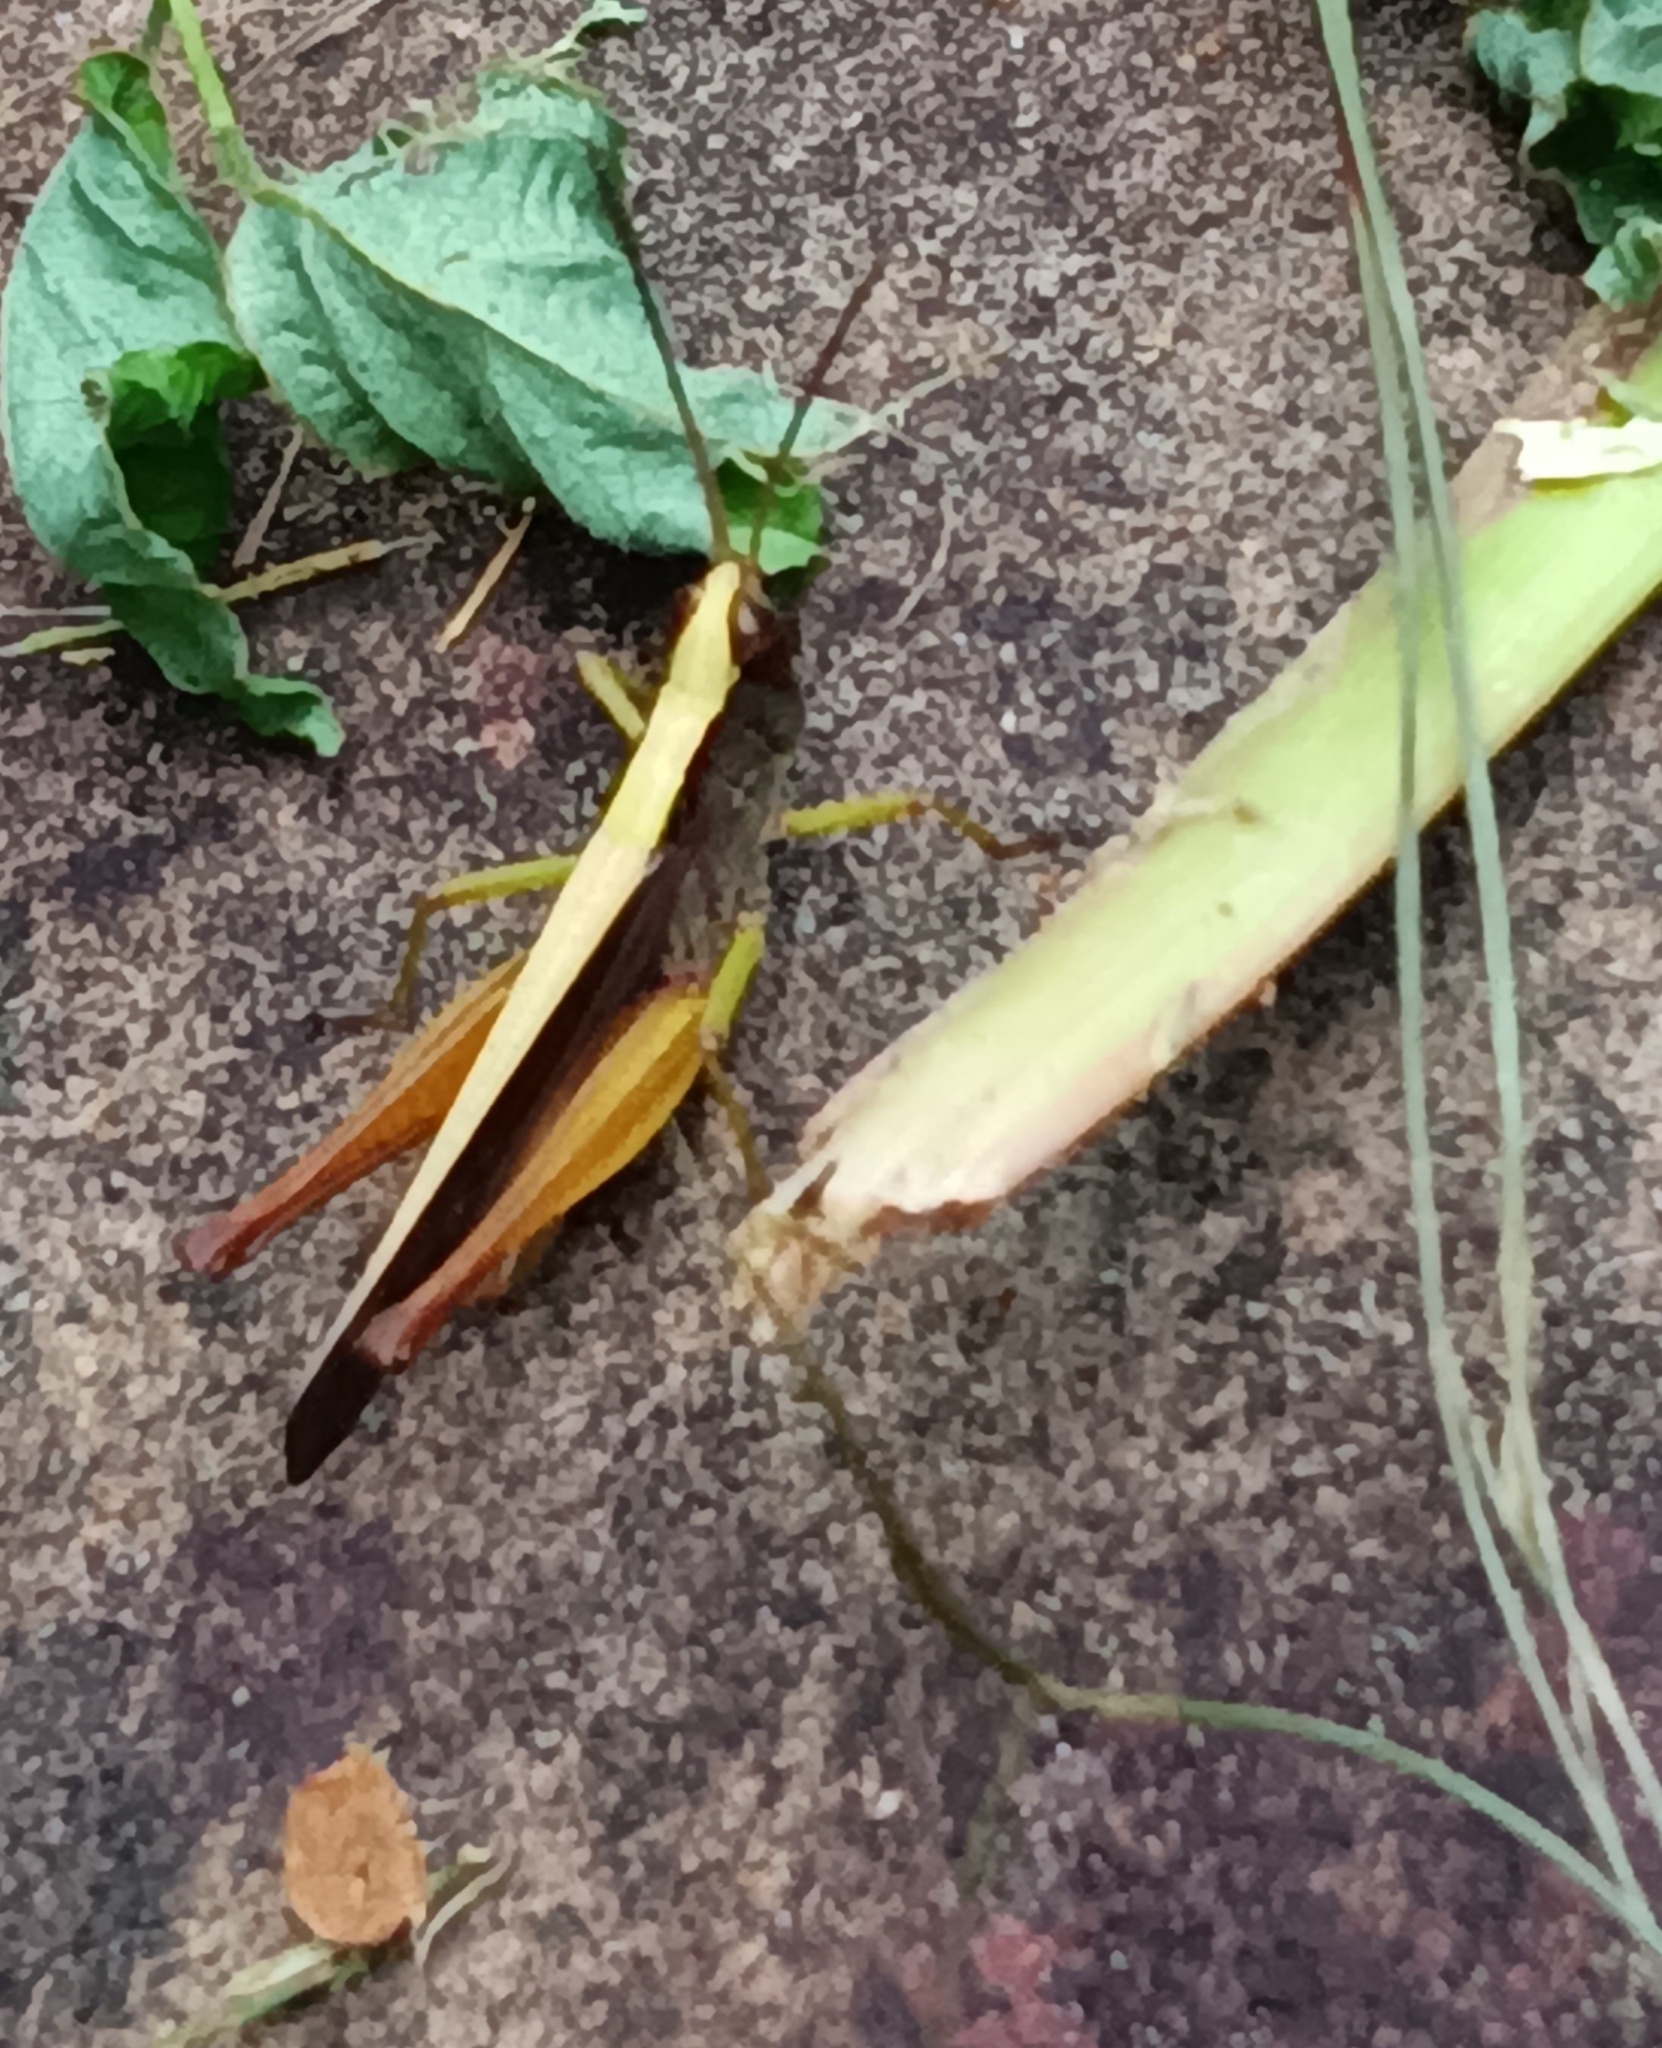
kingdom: Animalia
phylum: Arthropoda
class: Insecta
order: Orthoptera
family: Acrididae
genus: Orphula
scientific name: Orphula azteca
